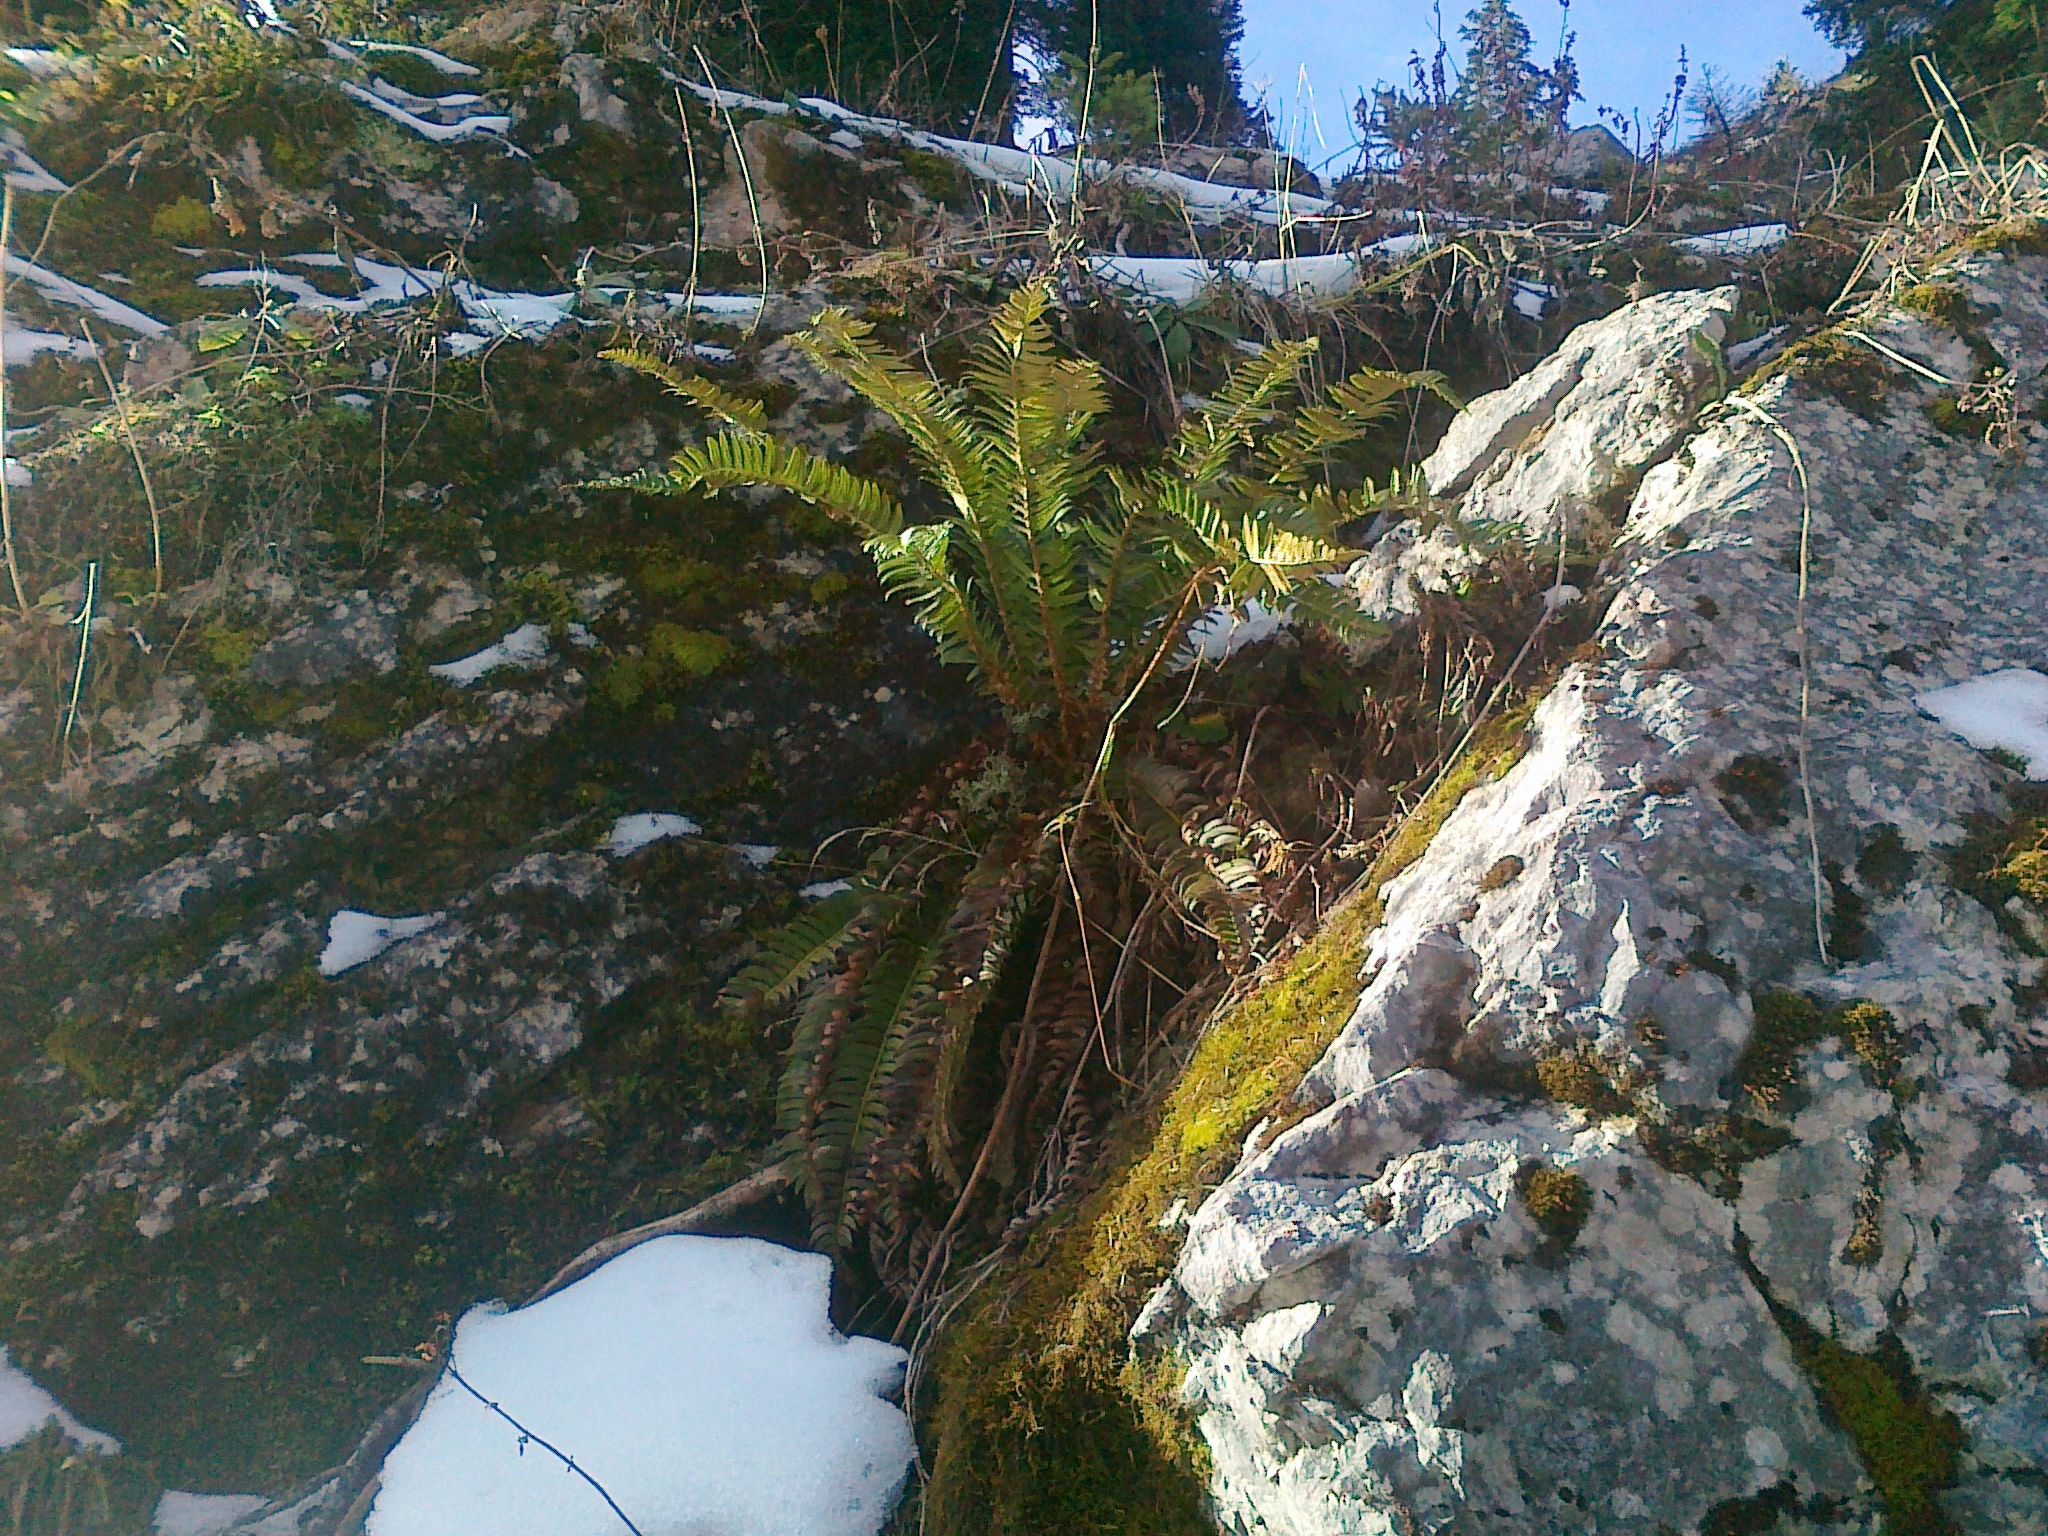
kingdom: Plantae
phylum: Tracheophyta
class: Polypodiopsida
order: Polypodiales
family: Dryopteridaceae
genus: Polystichum
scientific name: Polystichum lonchitis
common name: Holly fern
